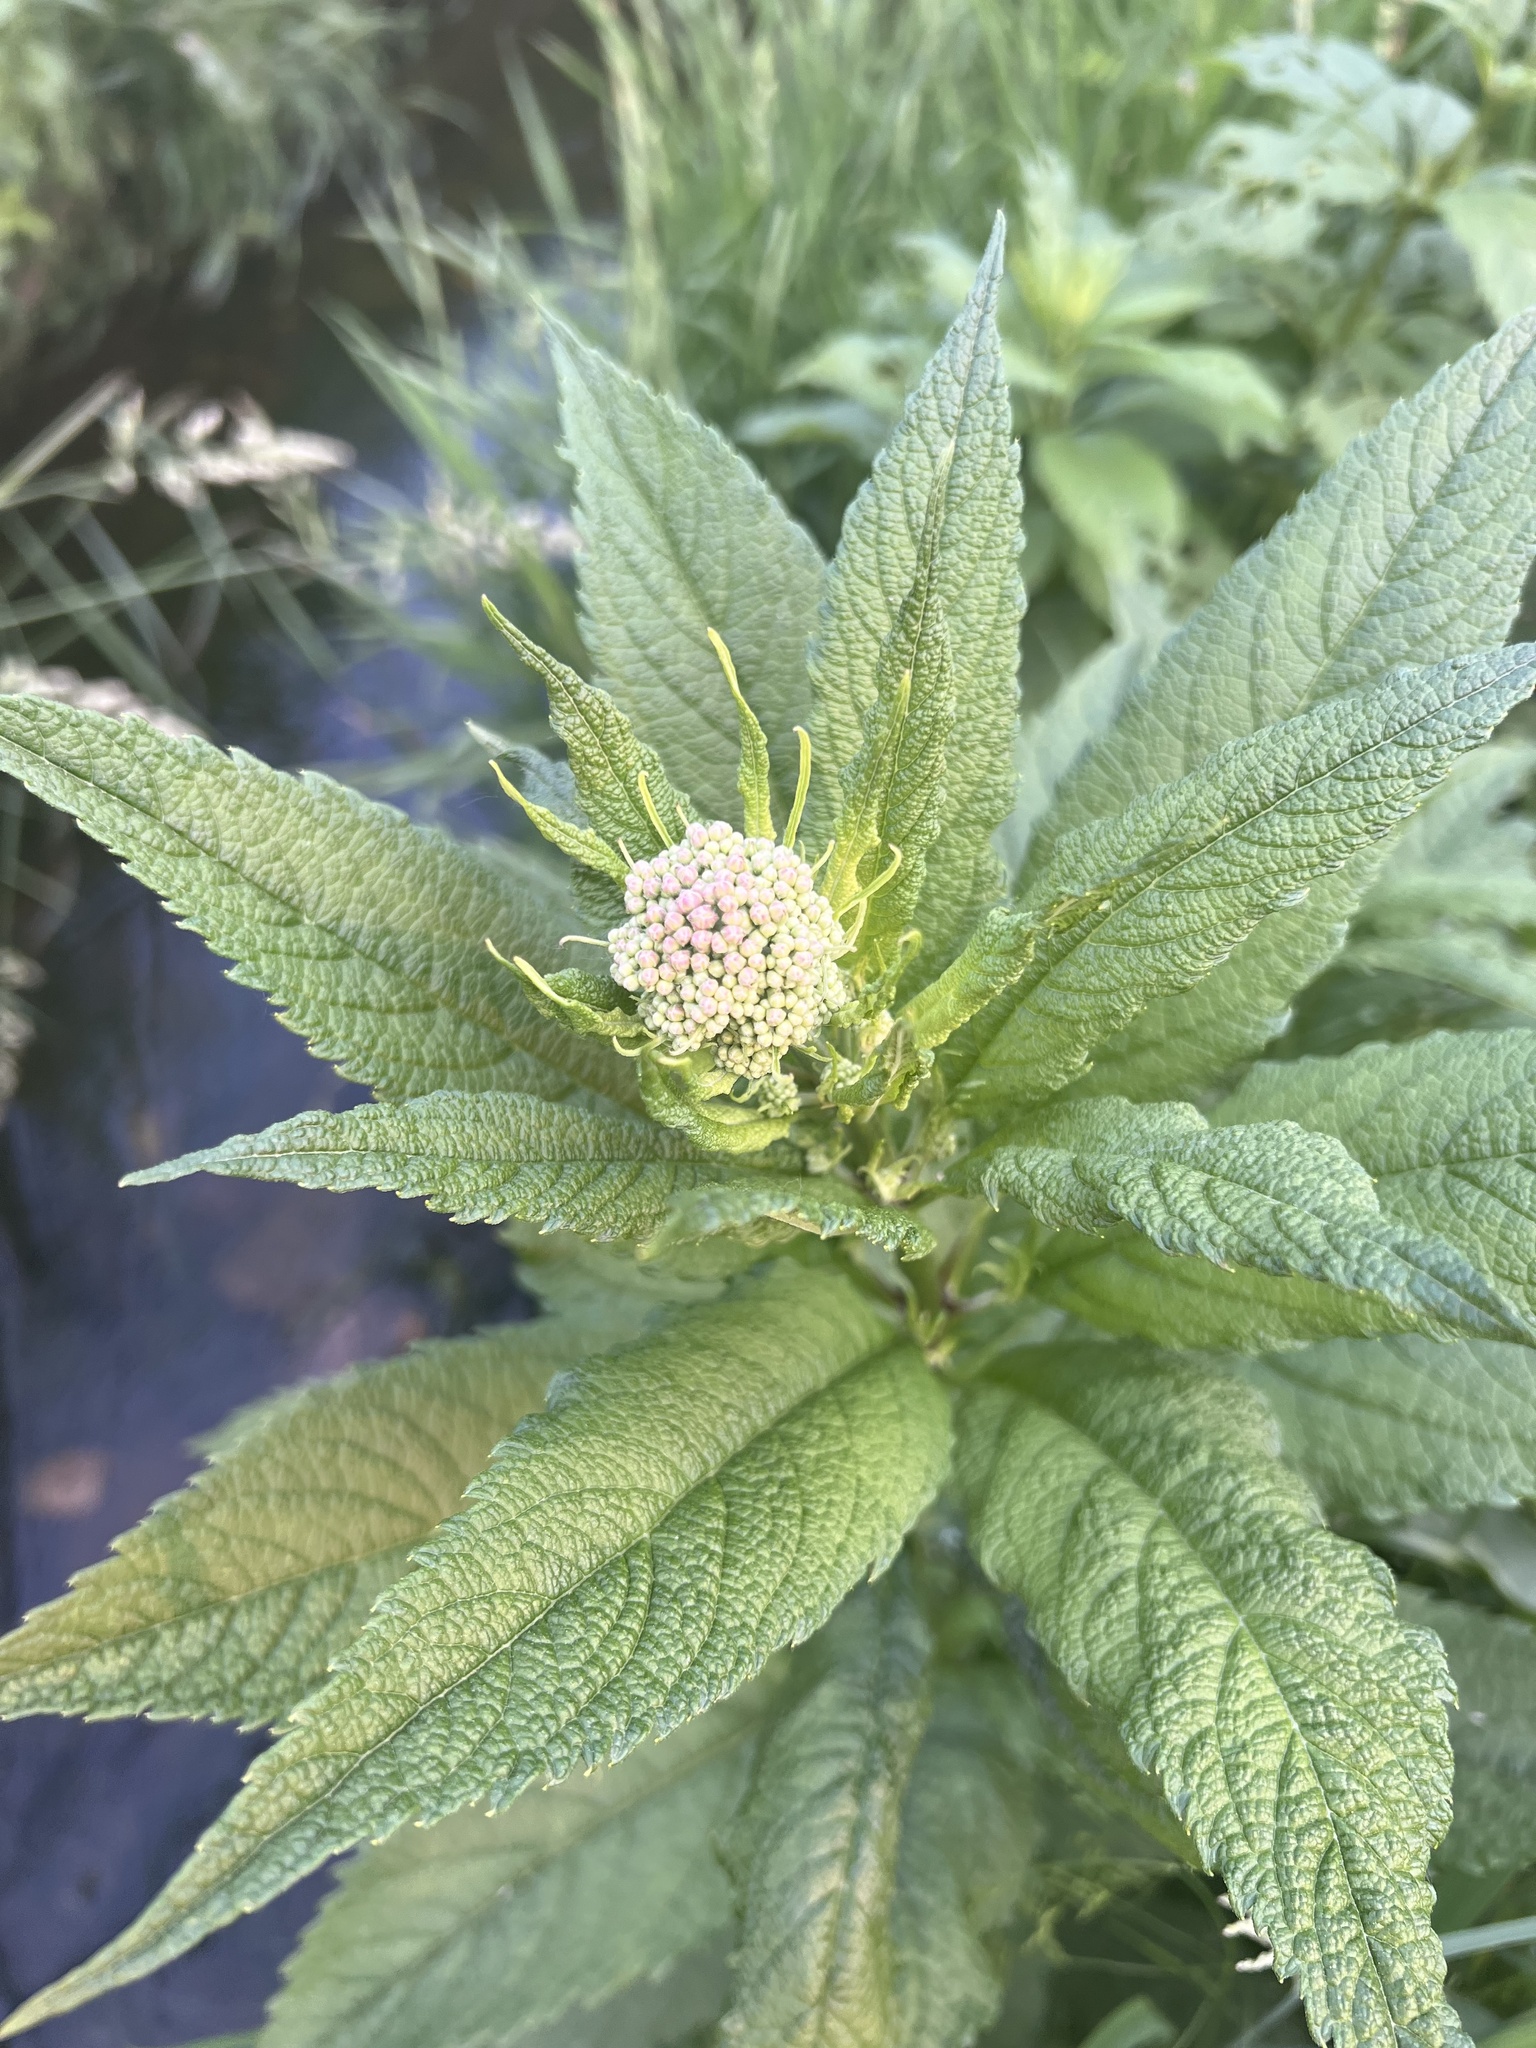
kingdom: Plantae
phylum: Tracheophyta
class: Magnoliopsida
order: Asterales
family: Asteraceae
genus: Eutrochium
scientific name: Eutrochium maculatum
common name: Spotted joe pye weed
